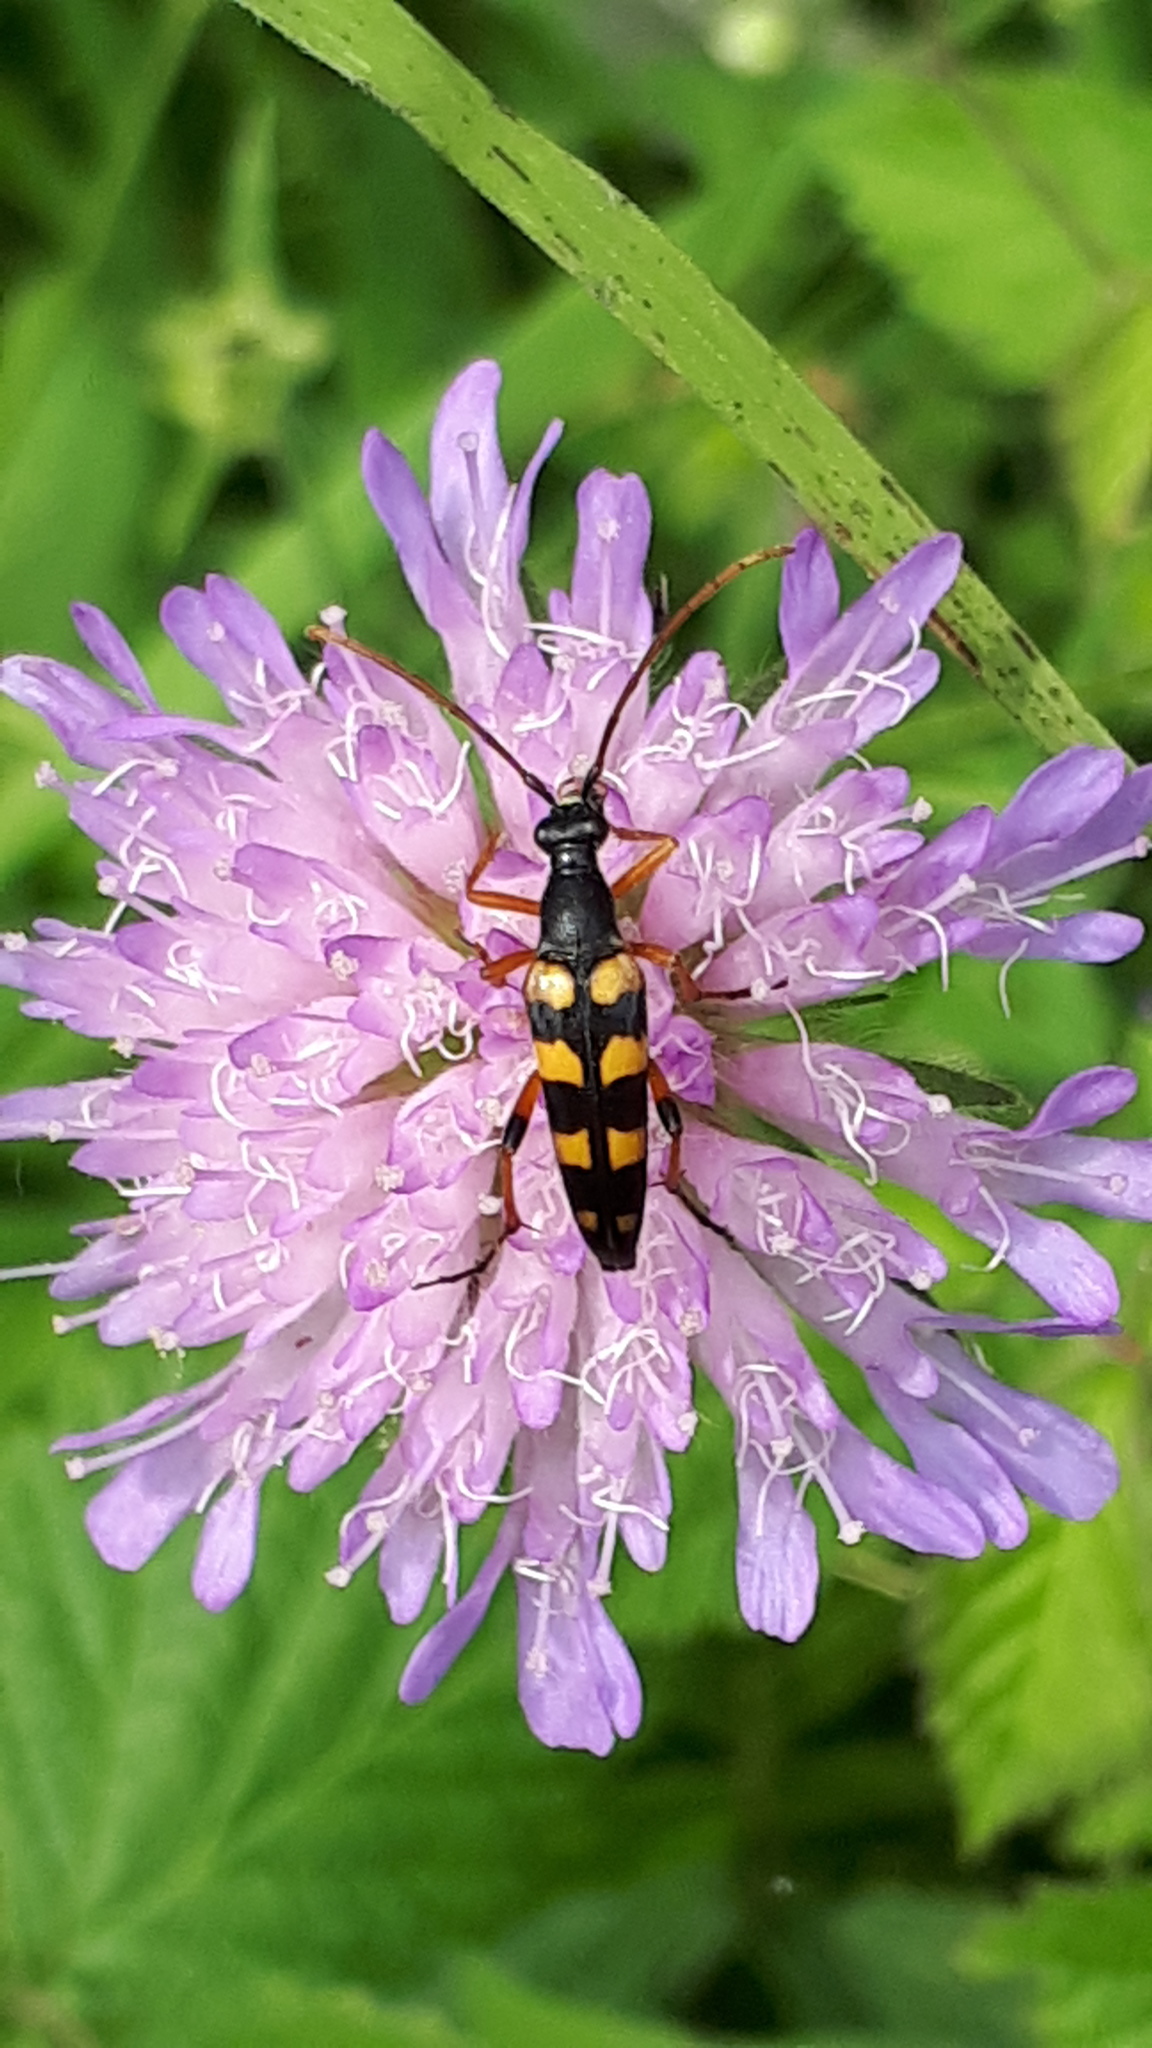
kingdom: Animalia
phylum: Arthropoda
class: Insecta
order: Coleoptera
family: Cerambycidae
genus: Strangalia
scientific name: Strangalia attenuata
